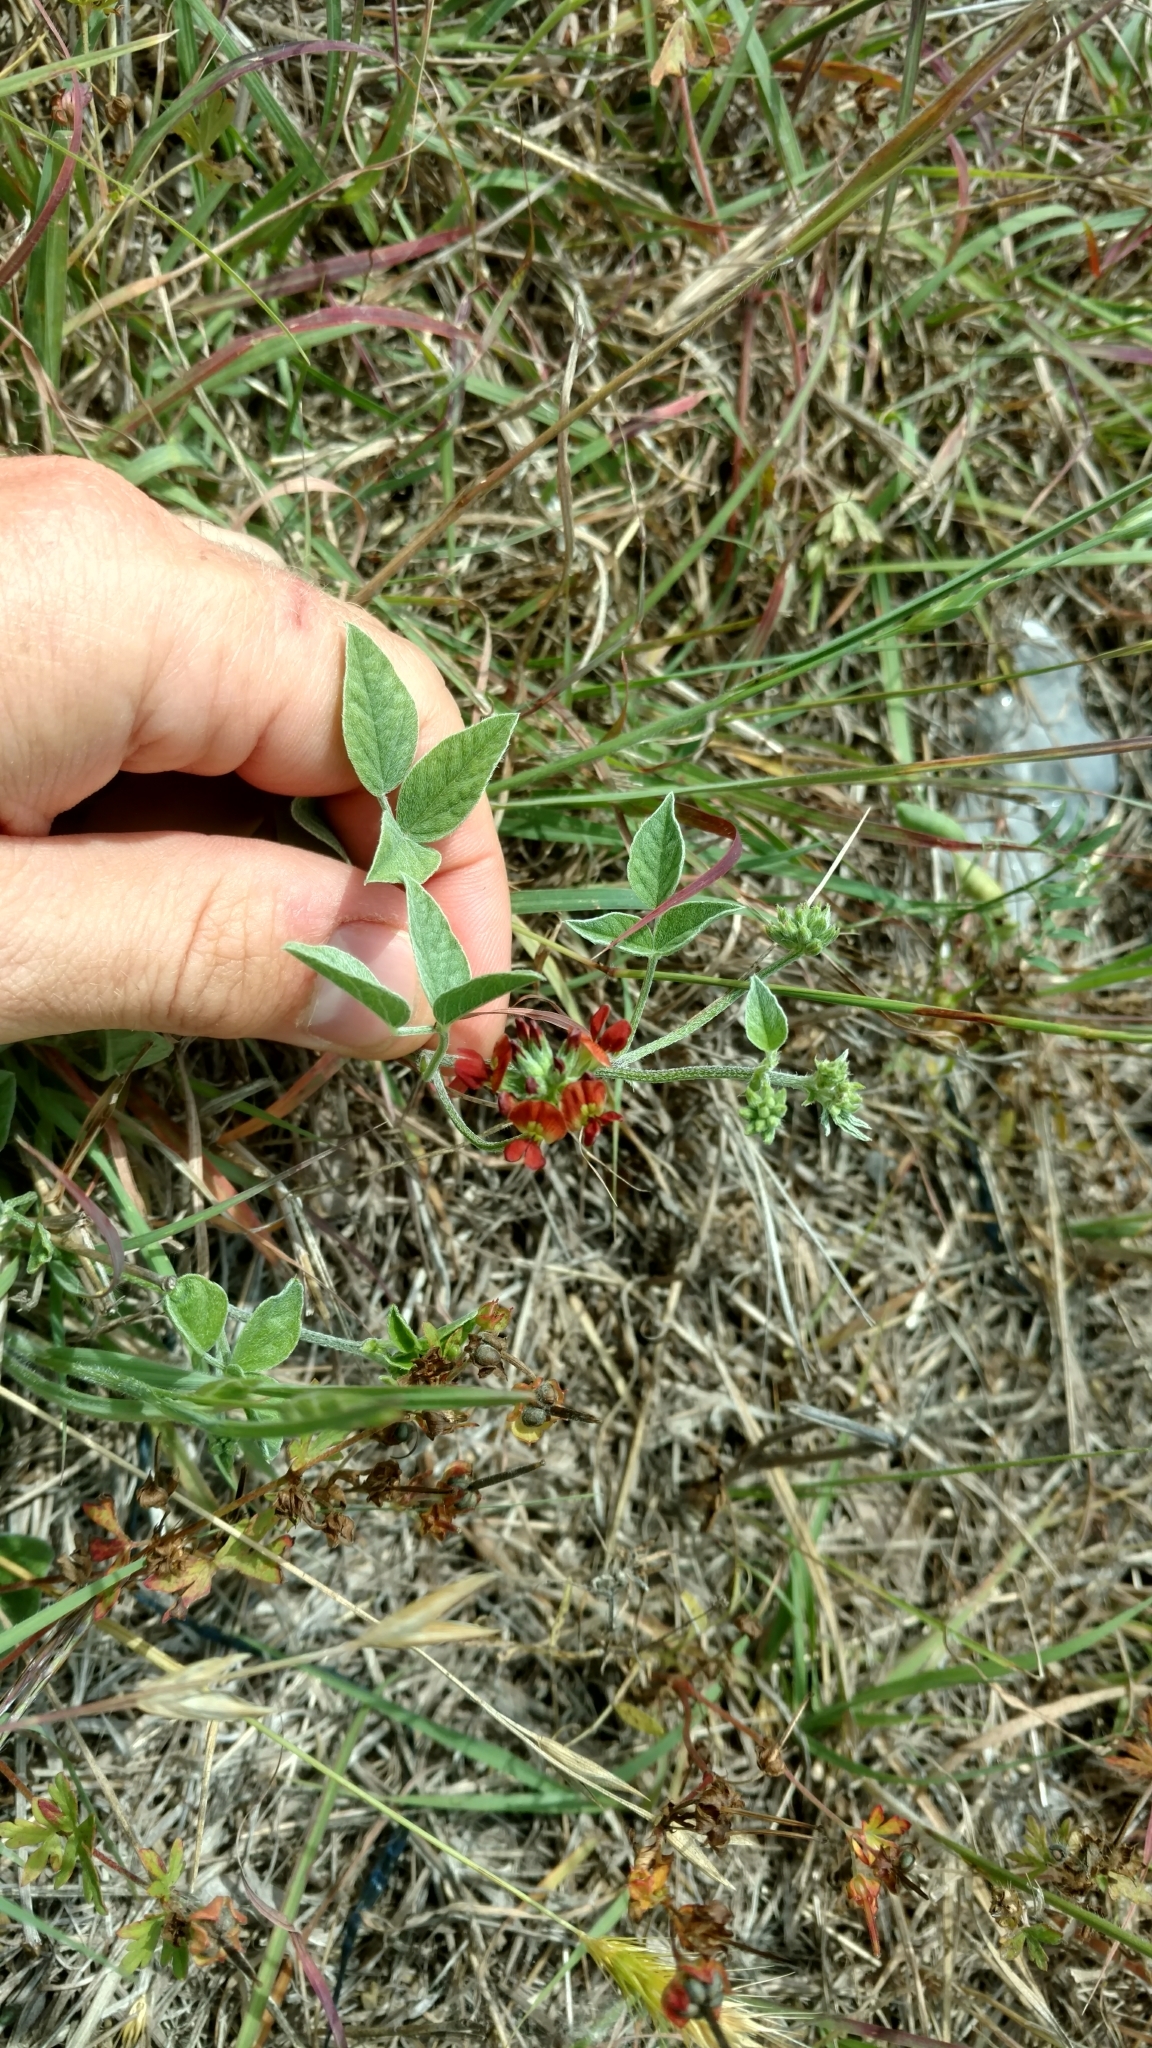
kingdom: Plantae
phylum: Tracheophyta
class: Magnoliopsida
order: Fabales
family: Fabaceae
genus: Pediomelum
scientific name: Pediomelum rhombifolium
